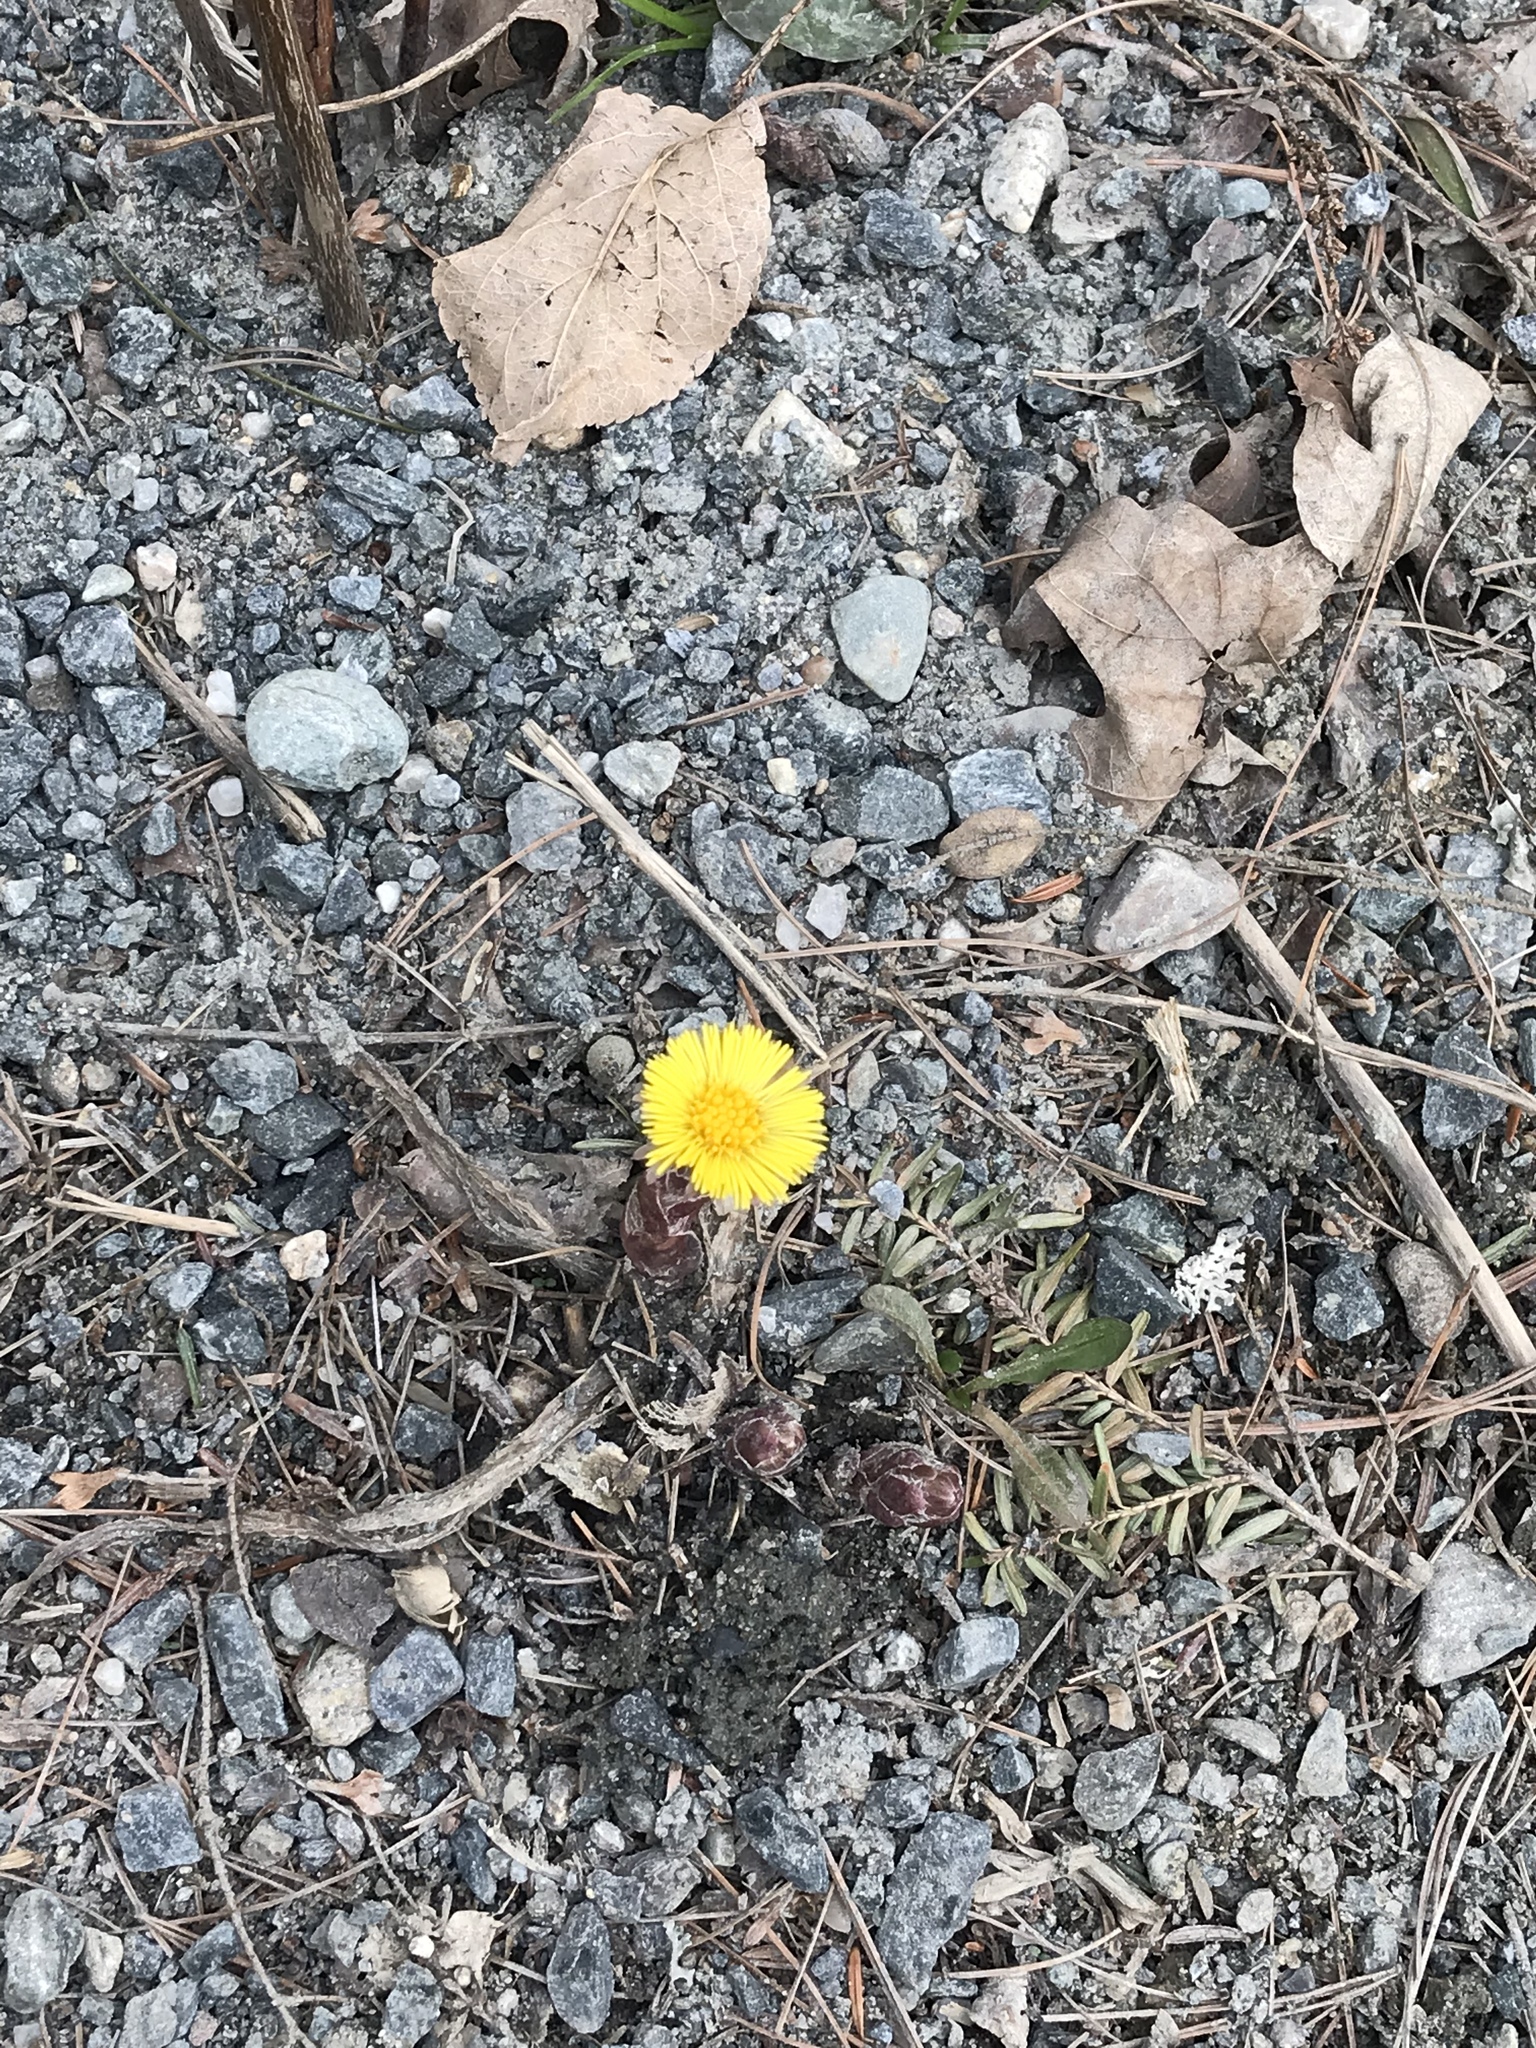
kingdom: Plantae
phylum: Tracheophyta
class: Magnoliopsida
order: Asterales
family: Asteraceae
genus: Tussilago
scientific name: Tussilago farfara
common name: Coltsfoot
